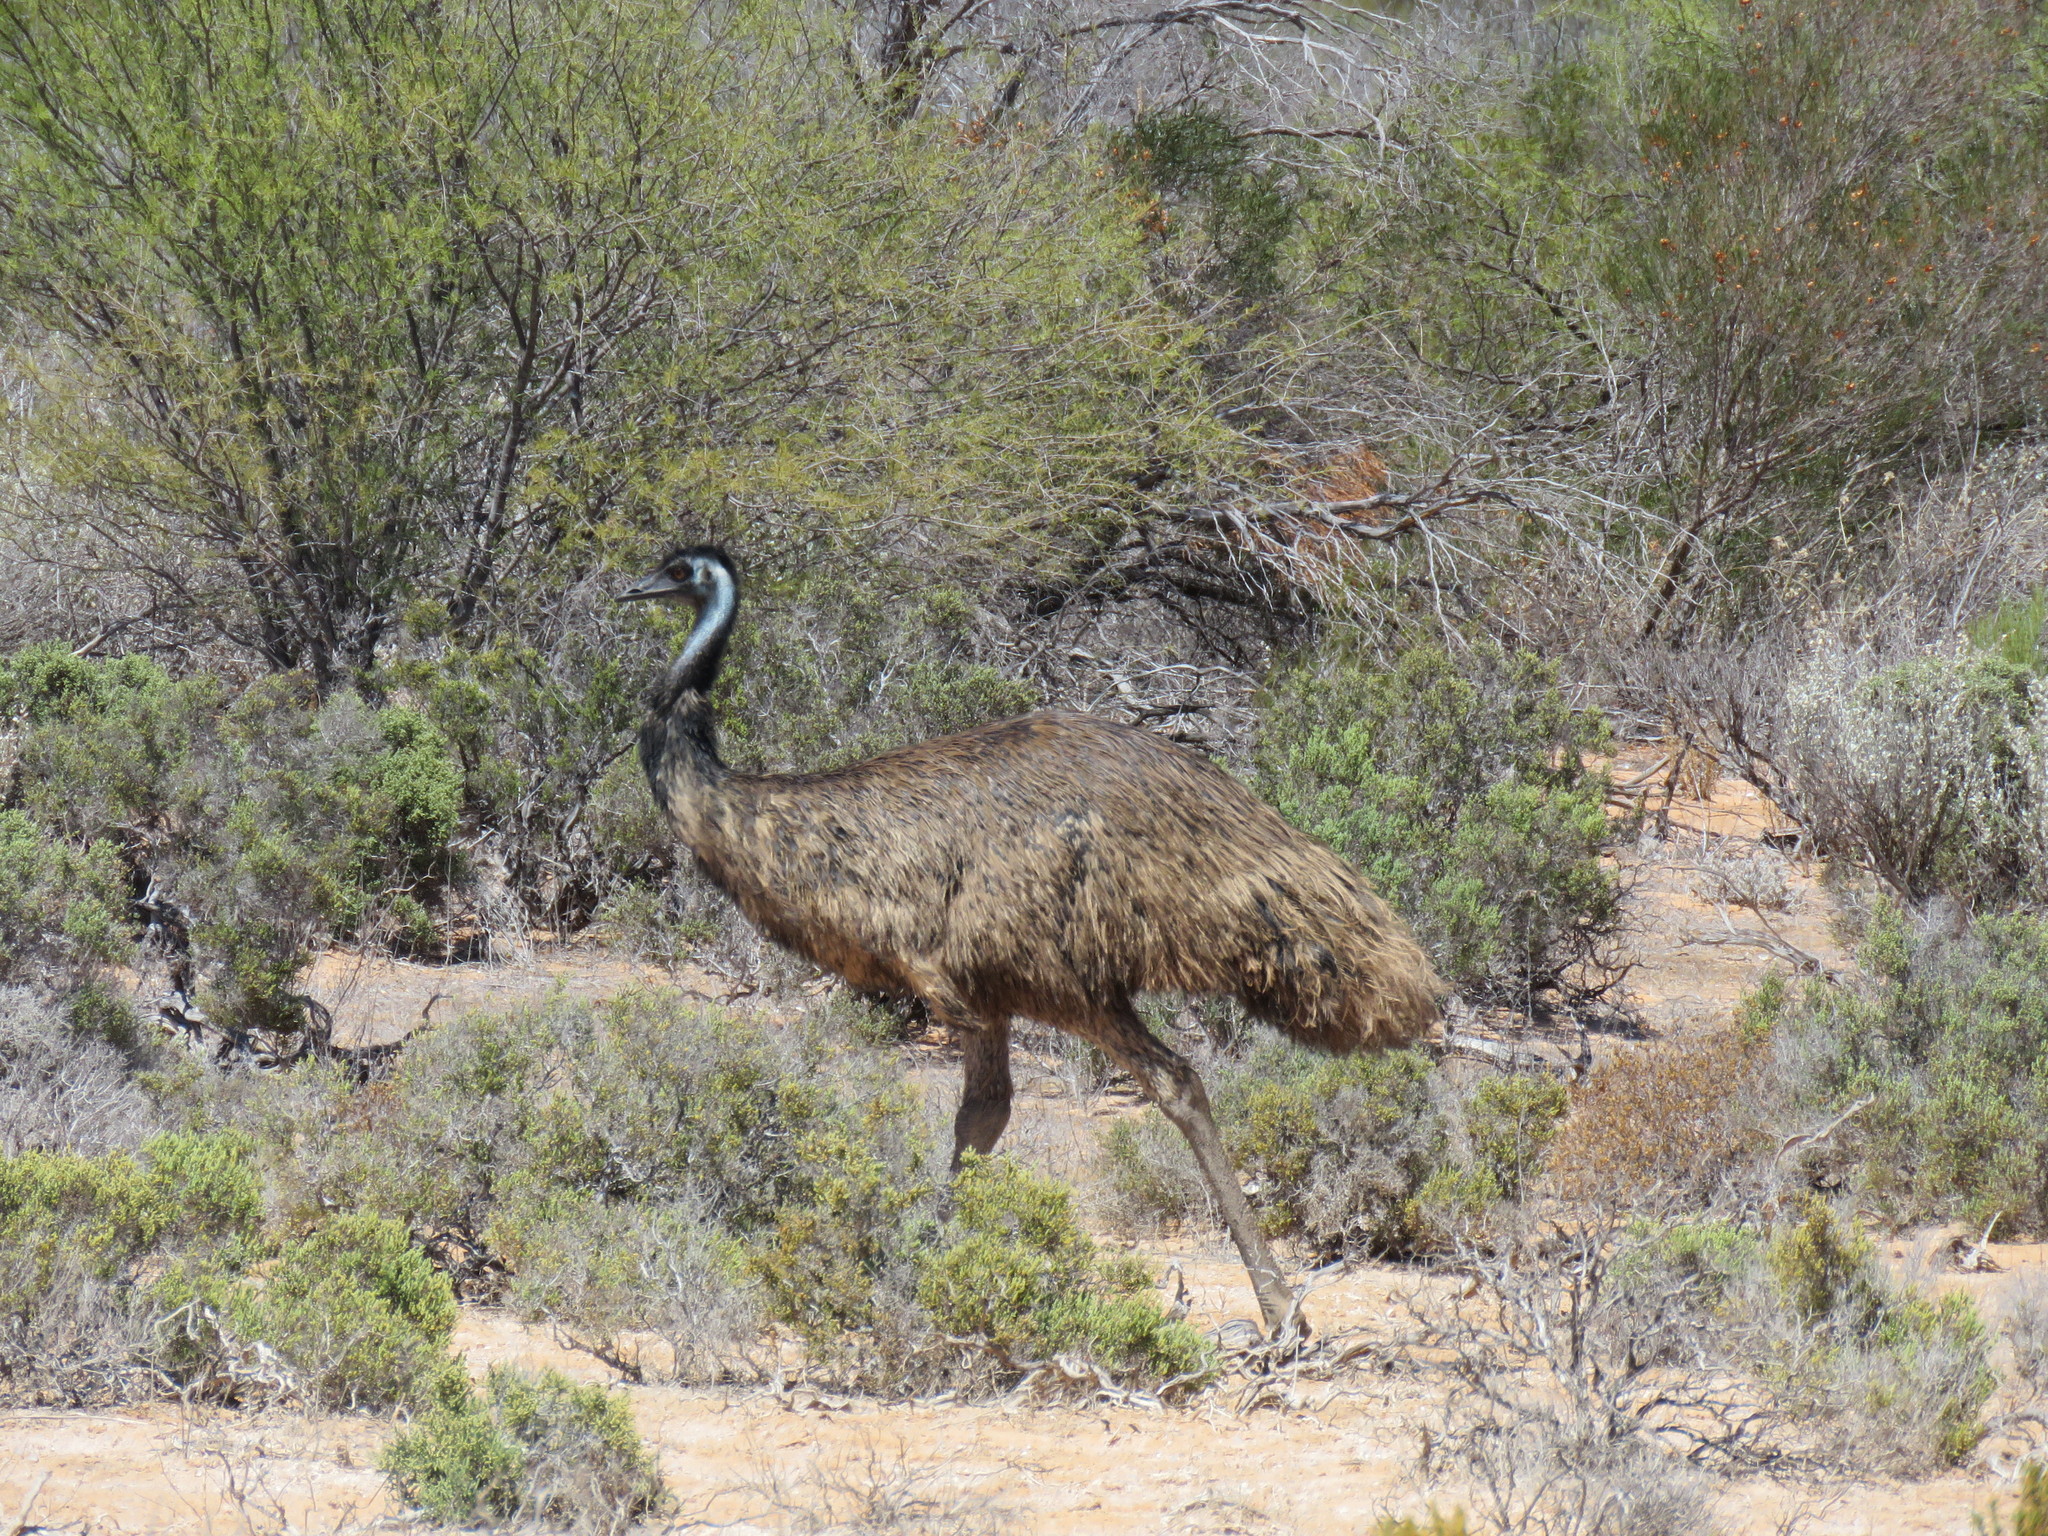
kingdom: Animalia
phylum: Chordata
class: Aves
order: Casuariiformes
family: Dromaiidae
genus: Dromaius
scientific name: Dromaius novaehollandiae
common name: Emu
